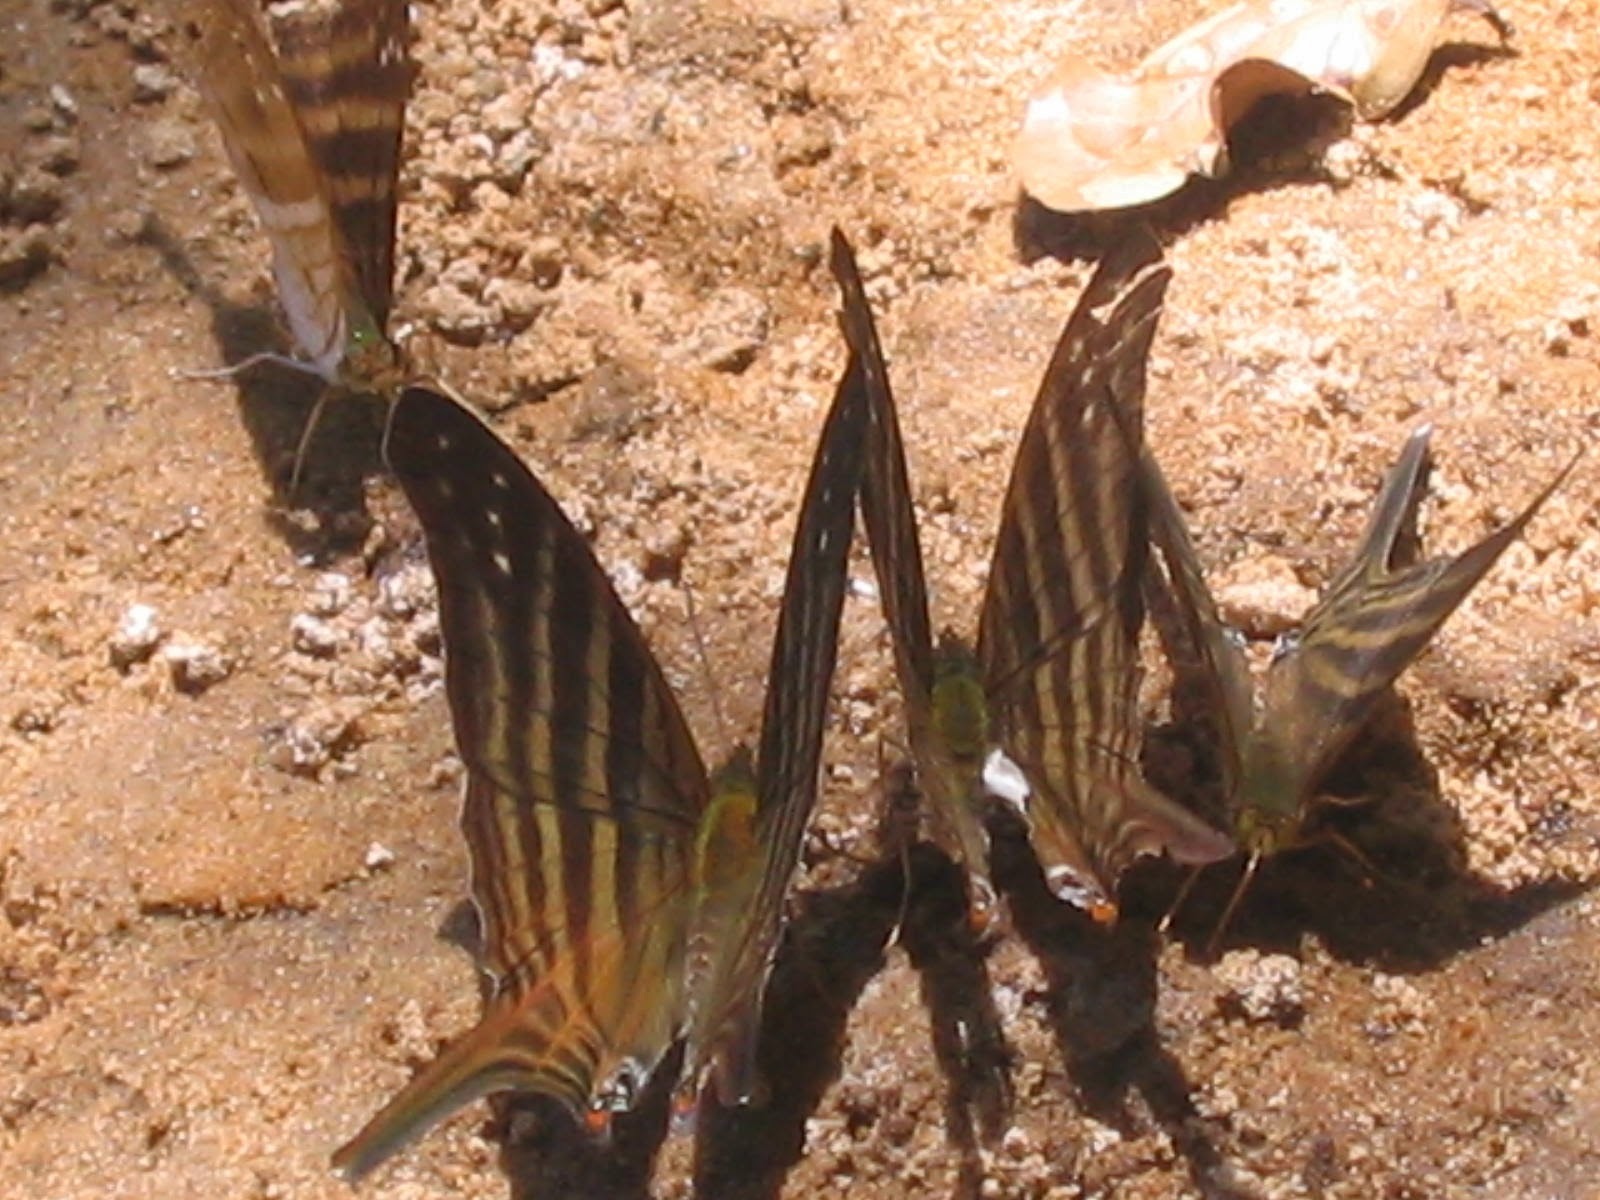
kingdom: Animalia
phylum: Arthropoda
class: Insecta
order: Lepidoptera
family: Nymphalidae
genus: Marpesia
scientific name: Marpesia chiron
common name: Many-banded daggerwing
